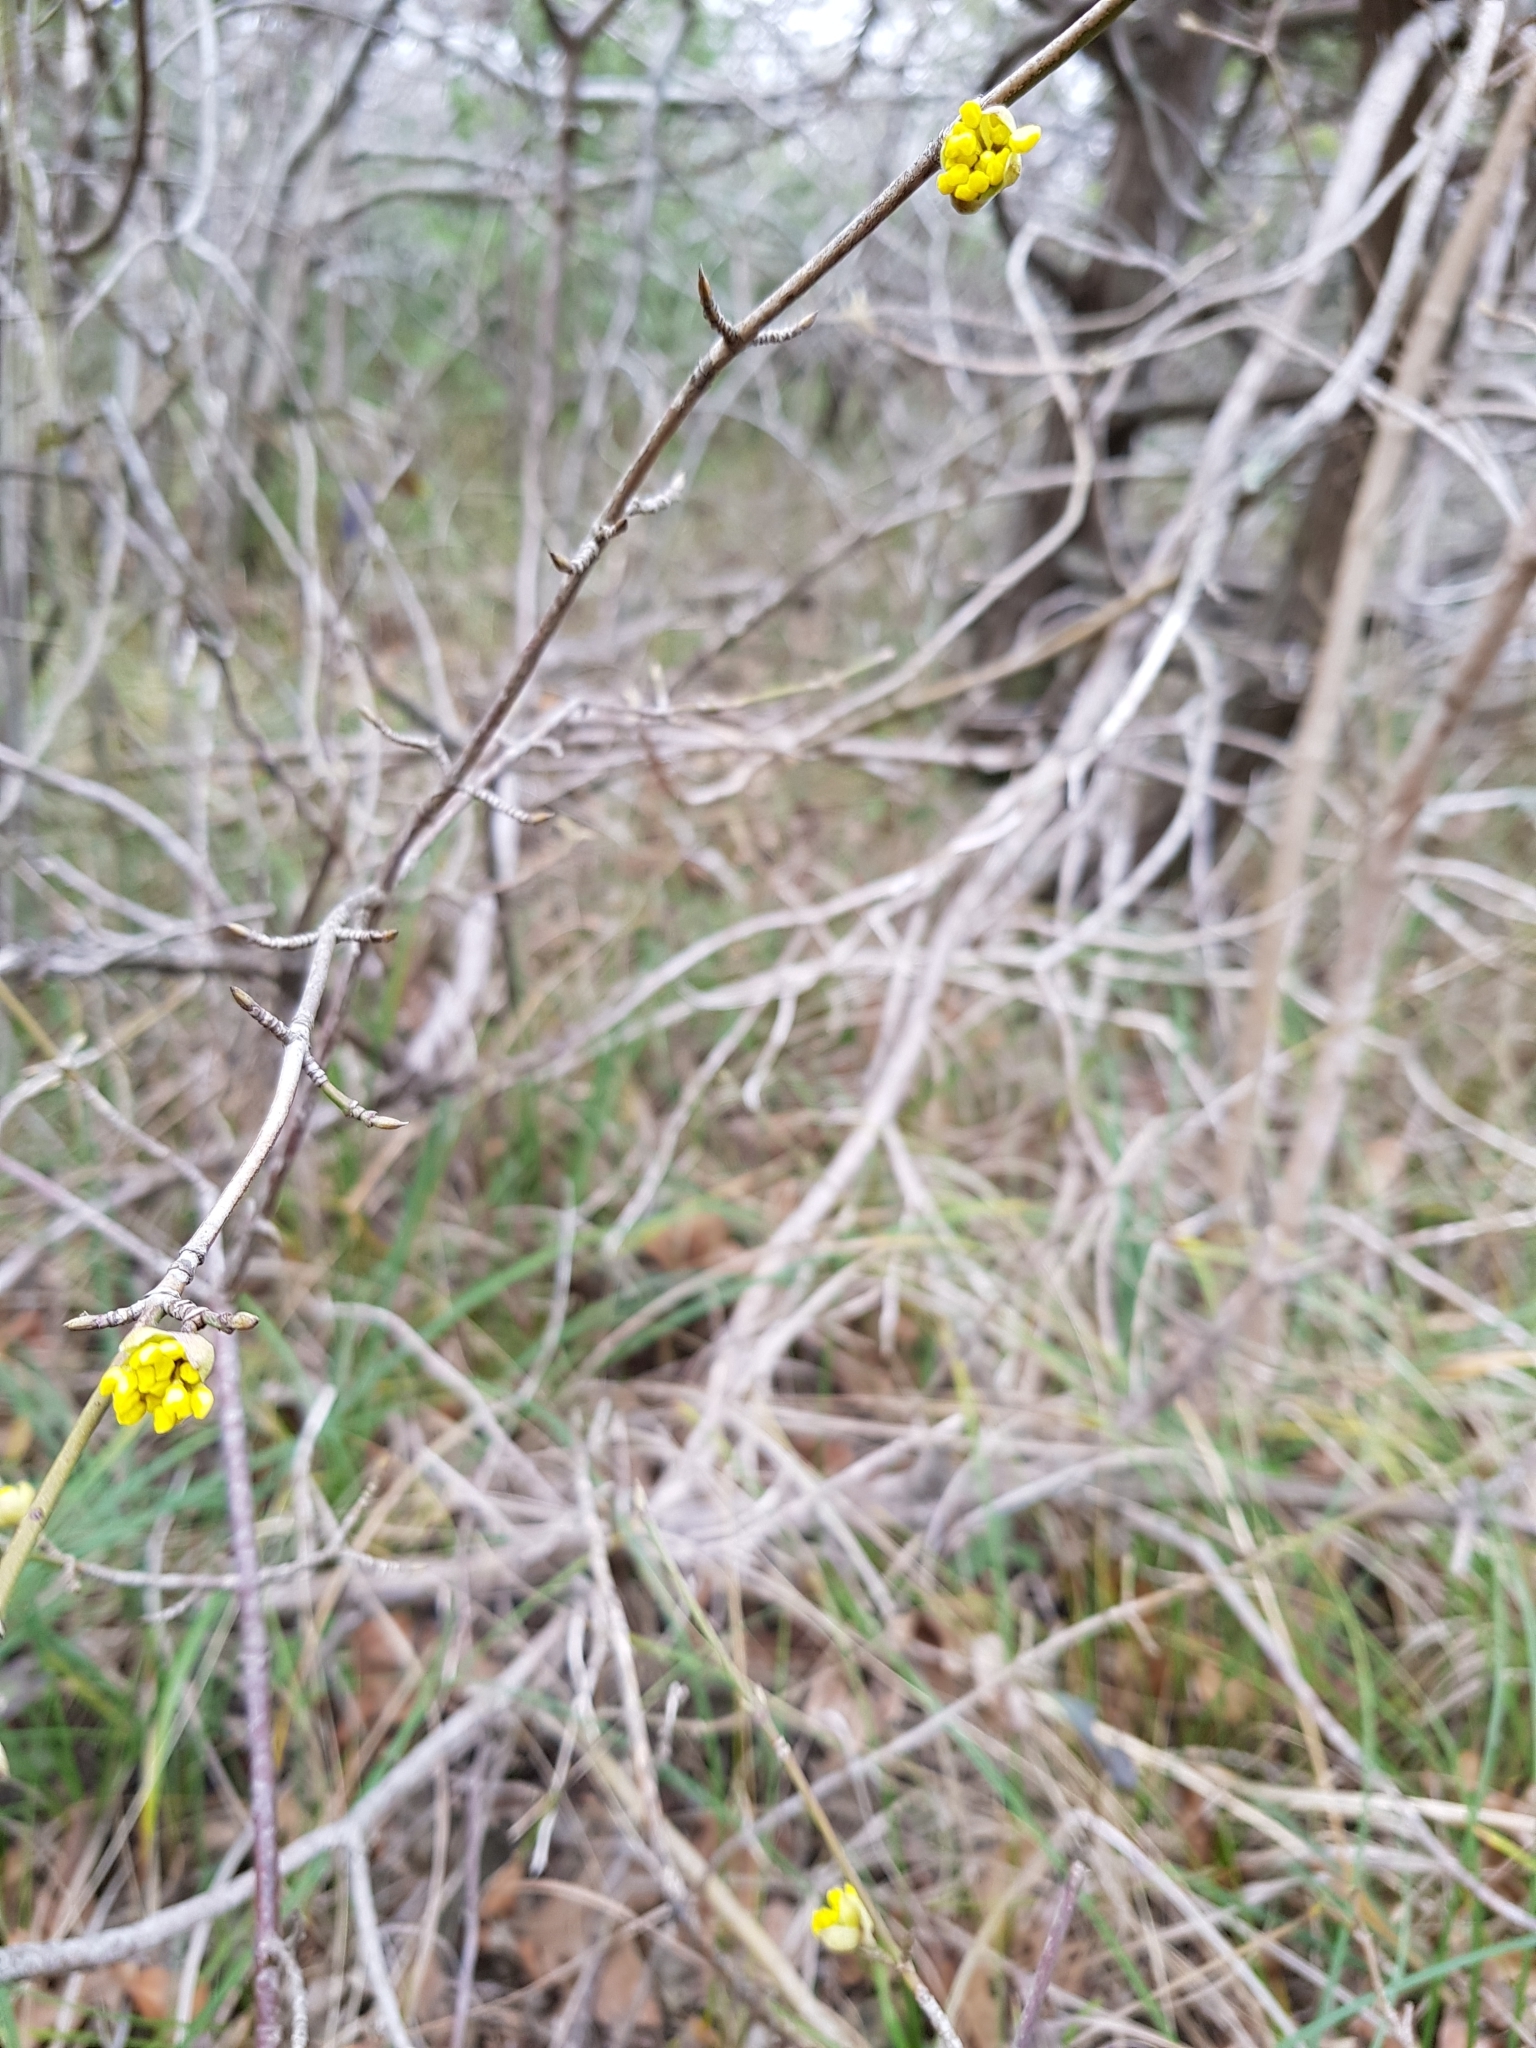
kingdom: Plantae
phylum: Tracheophyta
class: Magnoliopsida
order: Cornales
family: Cornaceae
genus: Cornus
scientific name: Cornus mas
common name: Cornelian-cherry
